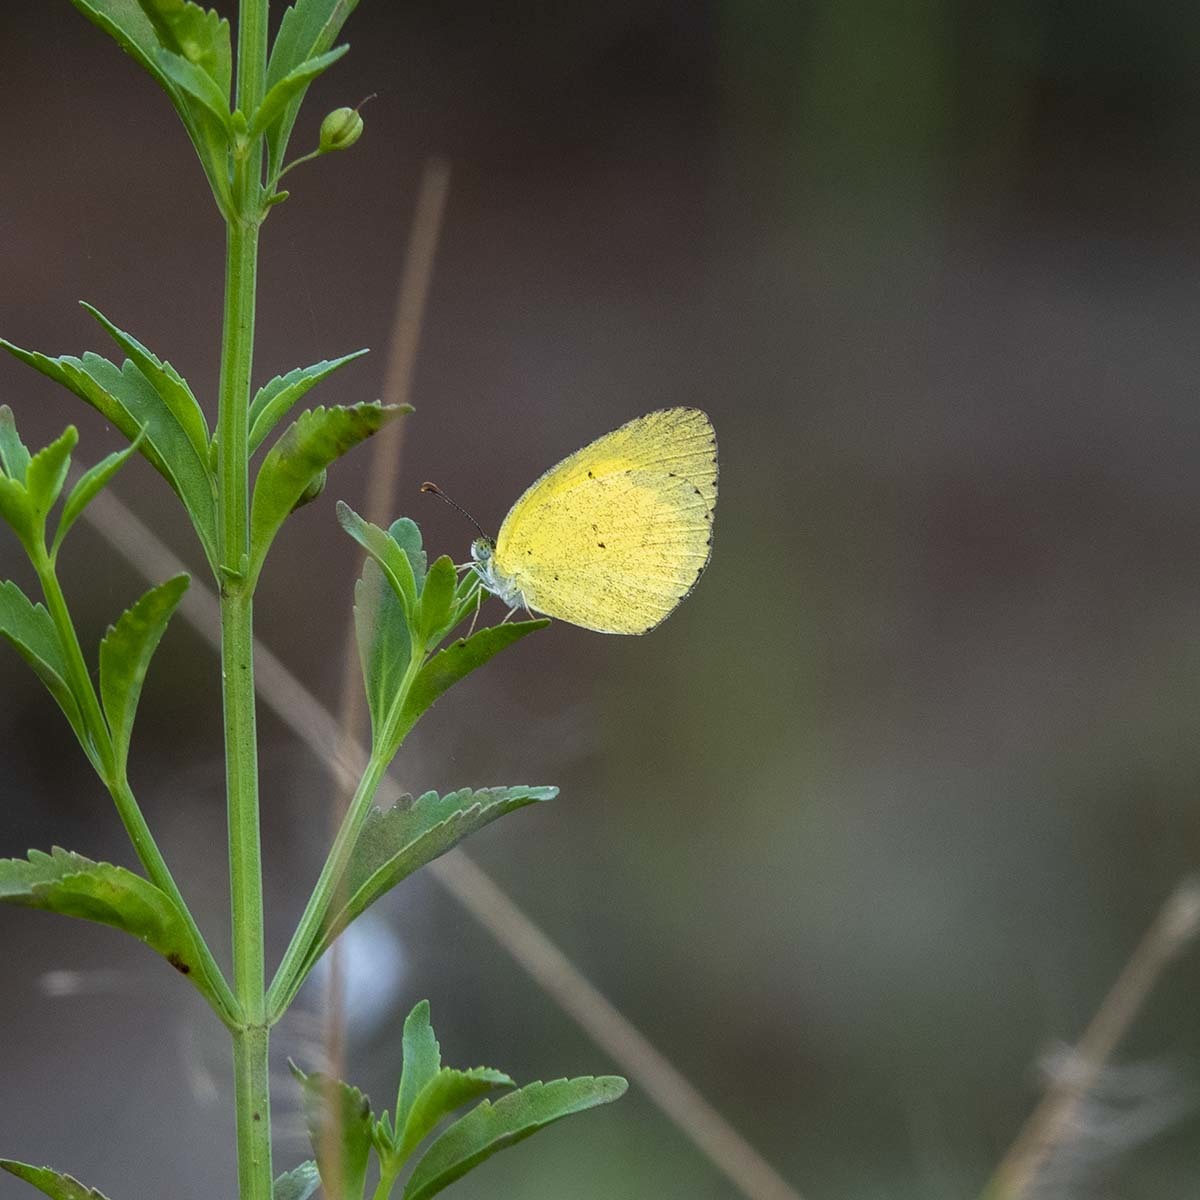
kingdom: Animalia
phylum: Arthropoda
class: Insecta
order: Lepidoptera
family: Pieridae
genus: Eurema
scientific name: Eurema brigitta
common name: Small grass yellow
